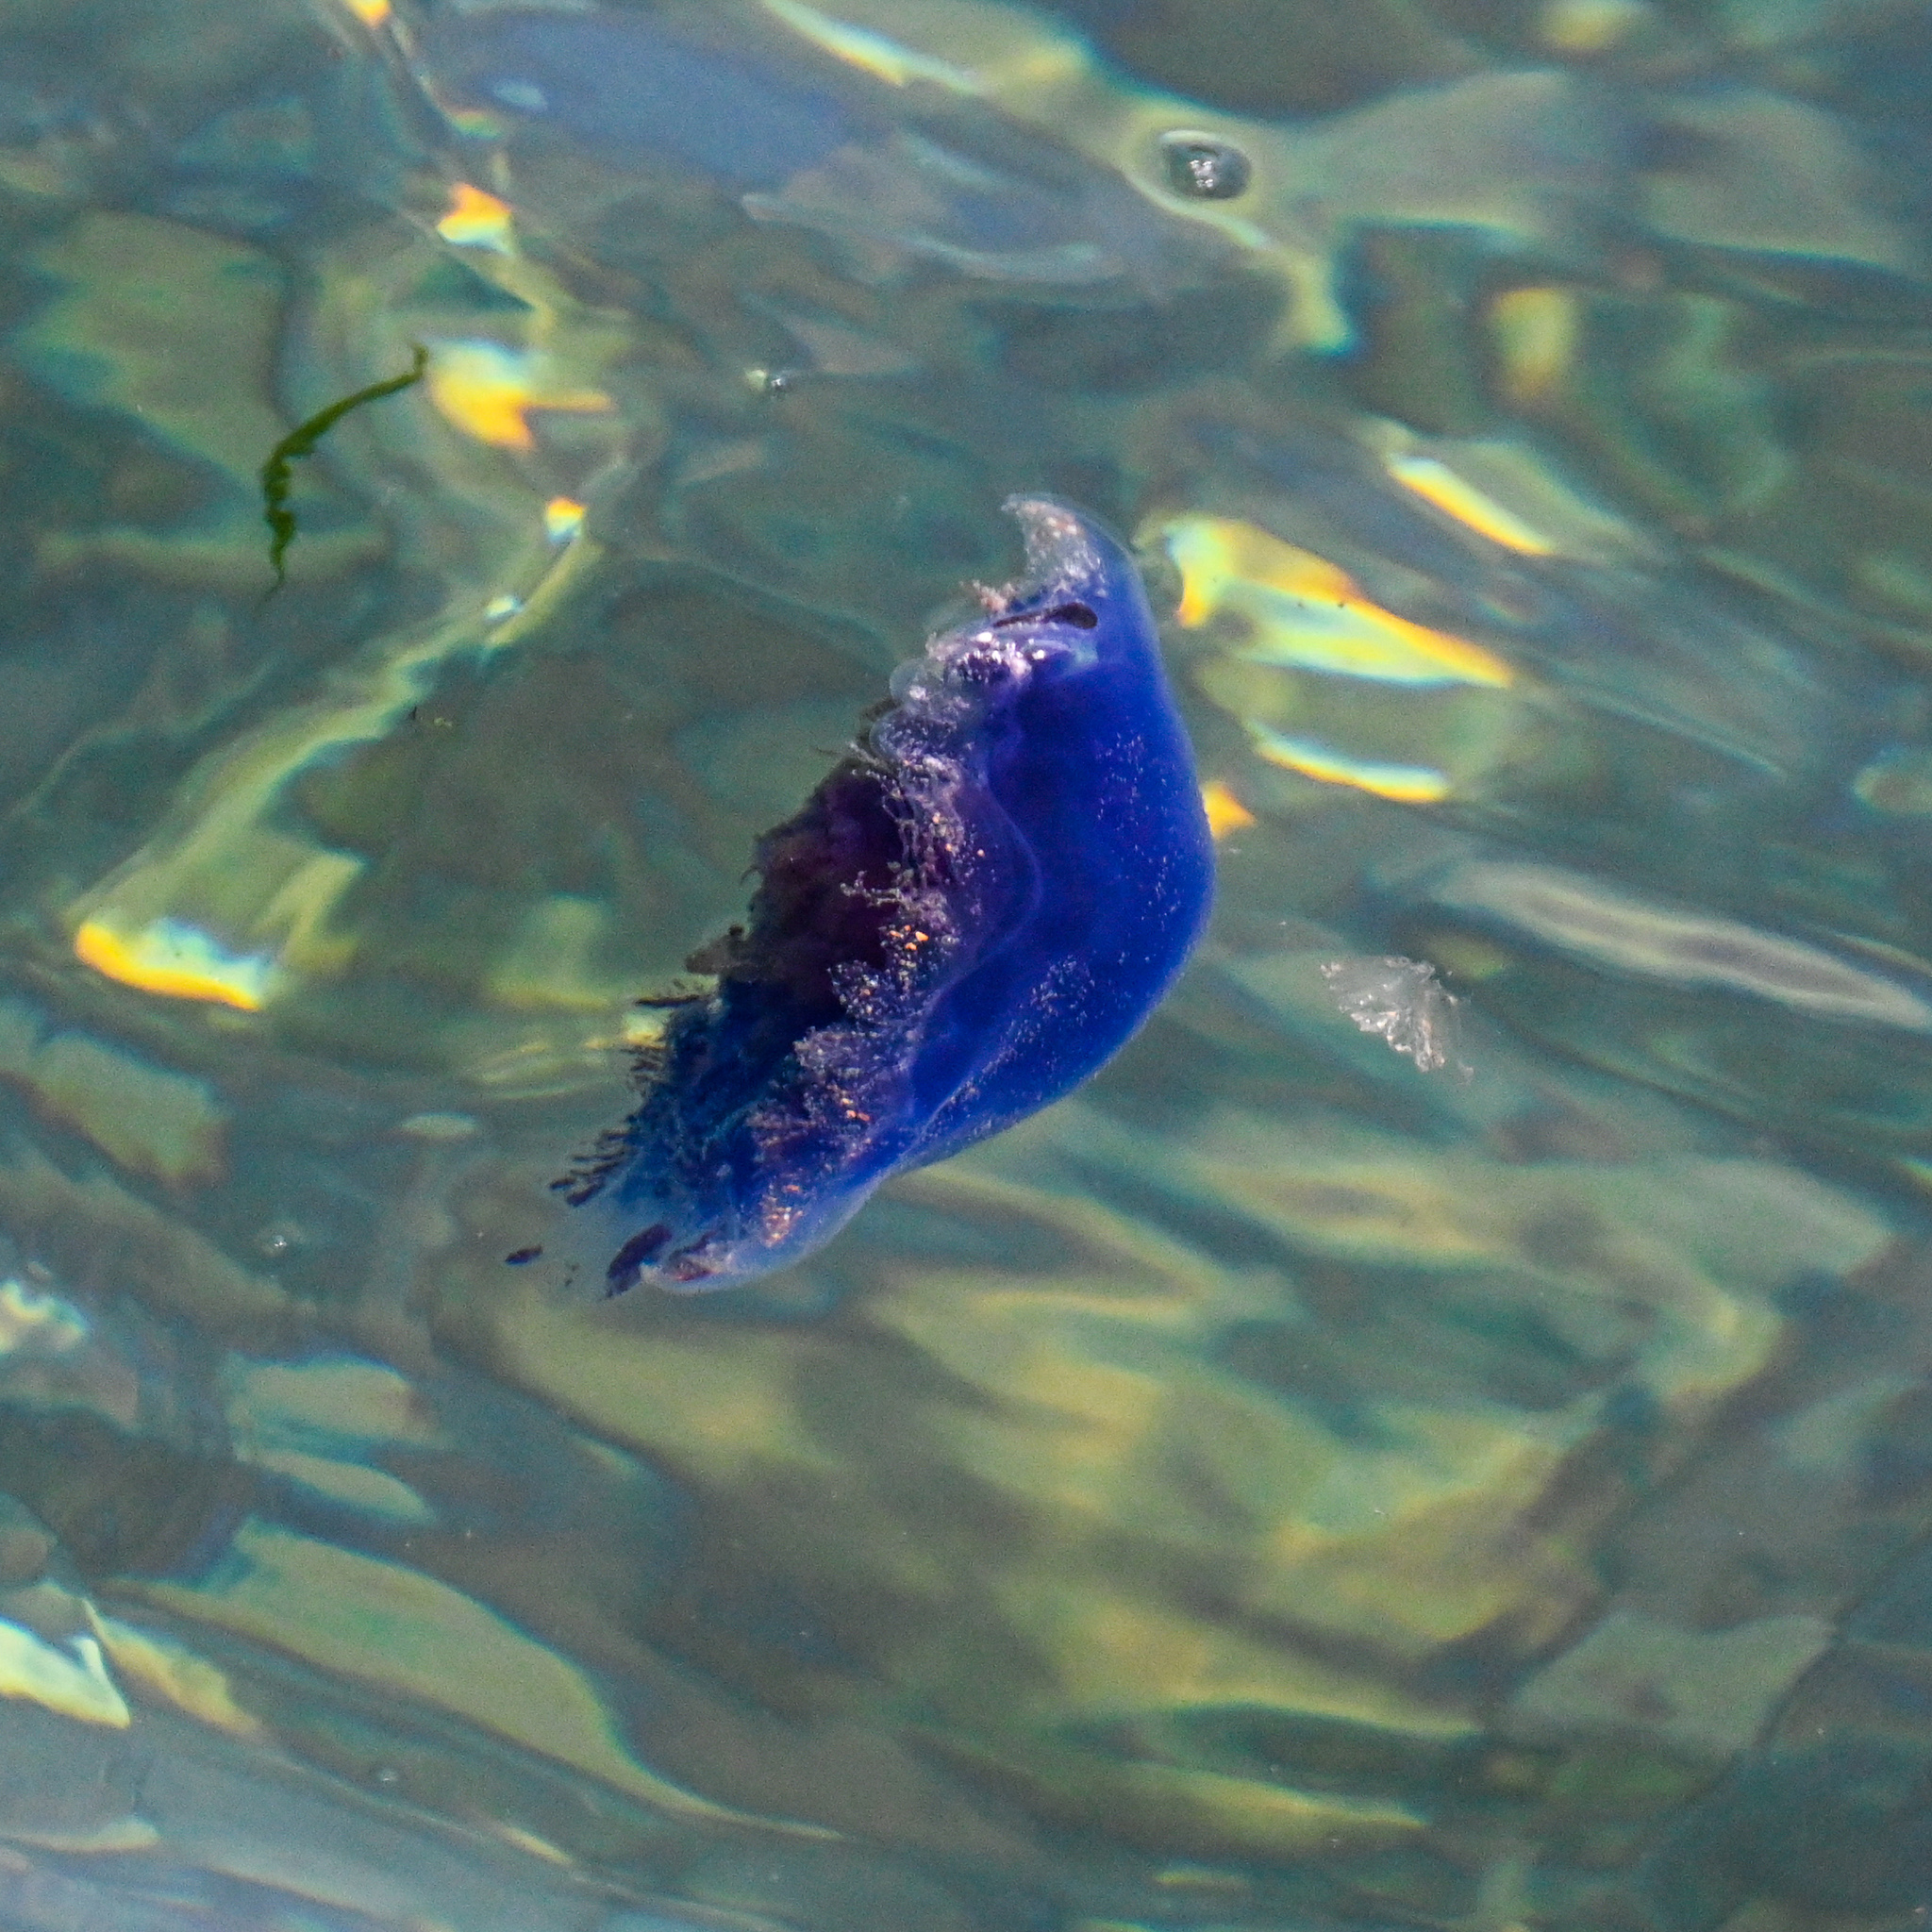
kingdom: Animalia
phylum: Cnidaria
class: Scyphozoa
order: Semaeostomeae
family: Cyaneidae
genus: Cyanea
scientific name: Cyanea lamarckii
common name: Blue jellyfish
